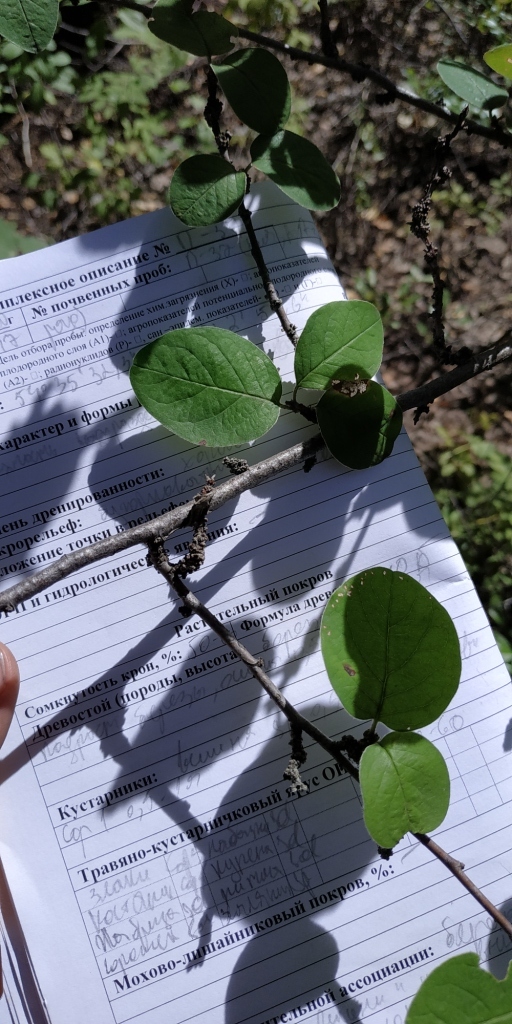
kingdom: Plantae
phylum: Tracheophyta
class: Magnoliopsida
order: Rosales
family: Rosaceae
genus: Cotoneaster
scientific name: Cotoneaster melanocarpus
